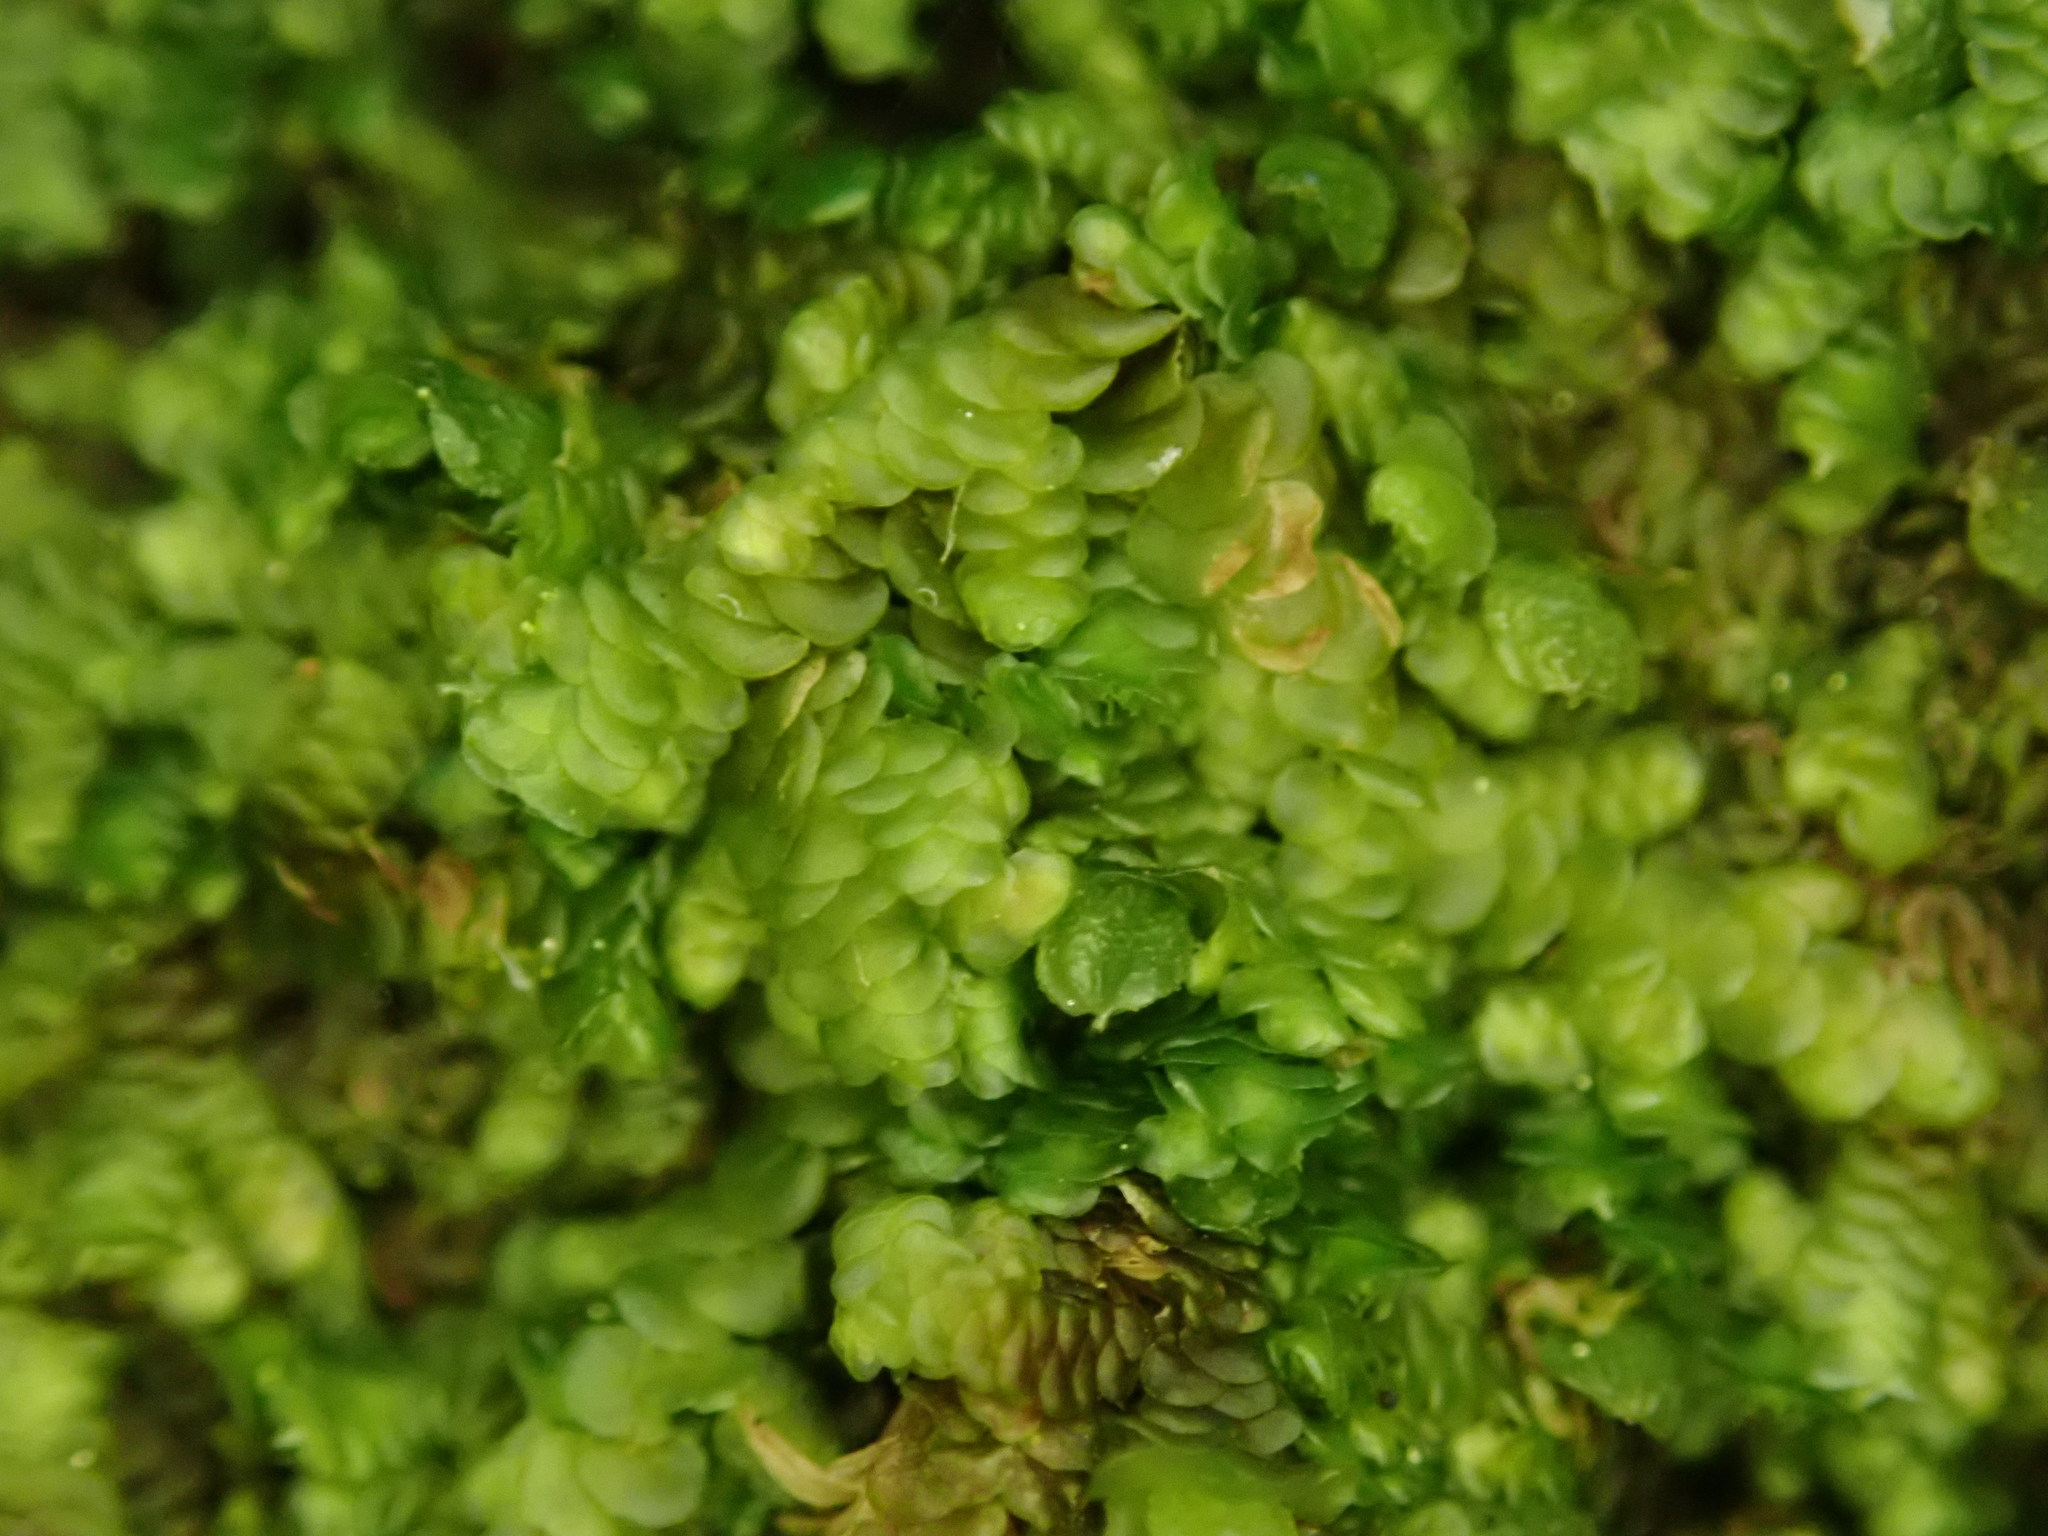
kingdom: Plantae
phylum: Marchantiophyta
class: Jungermanniopsida
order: Porellales
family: Frullaniaceae
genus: Frullania
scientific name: Frullania dilatata
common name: Dilated scalewort
